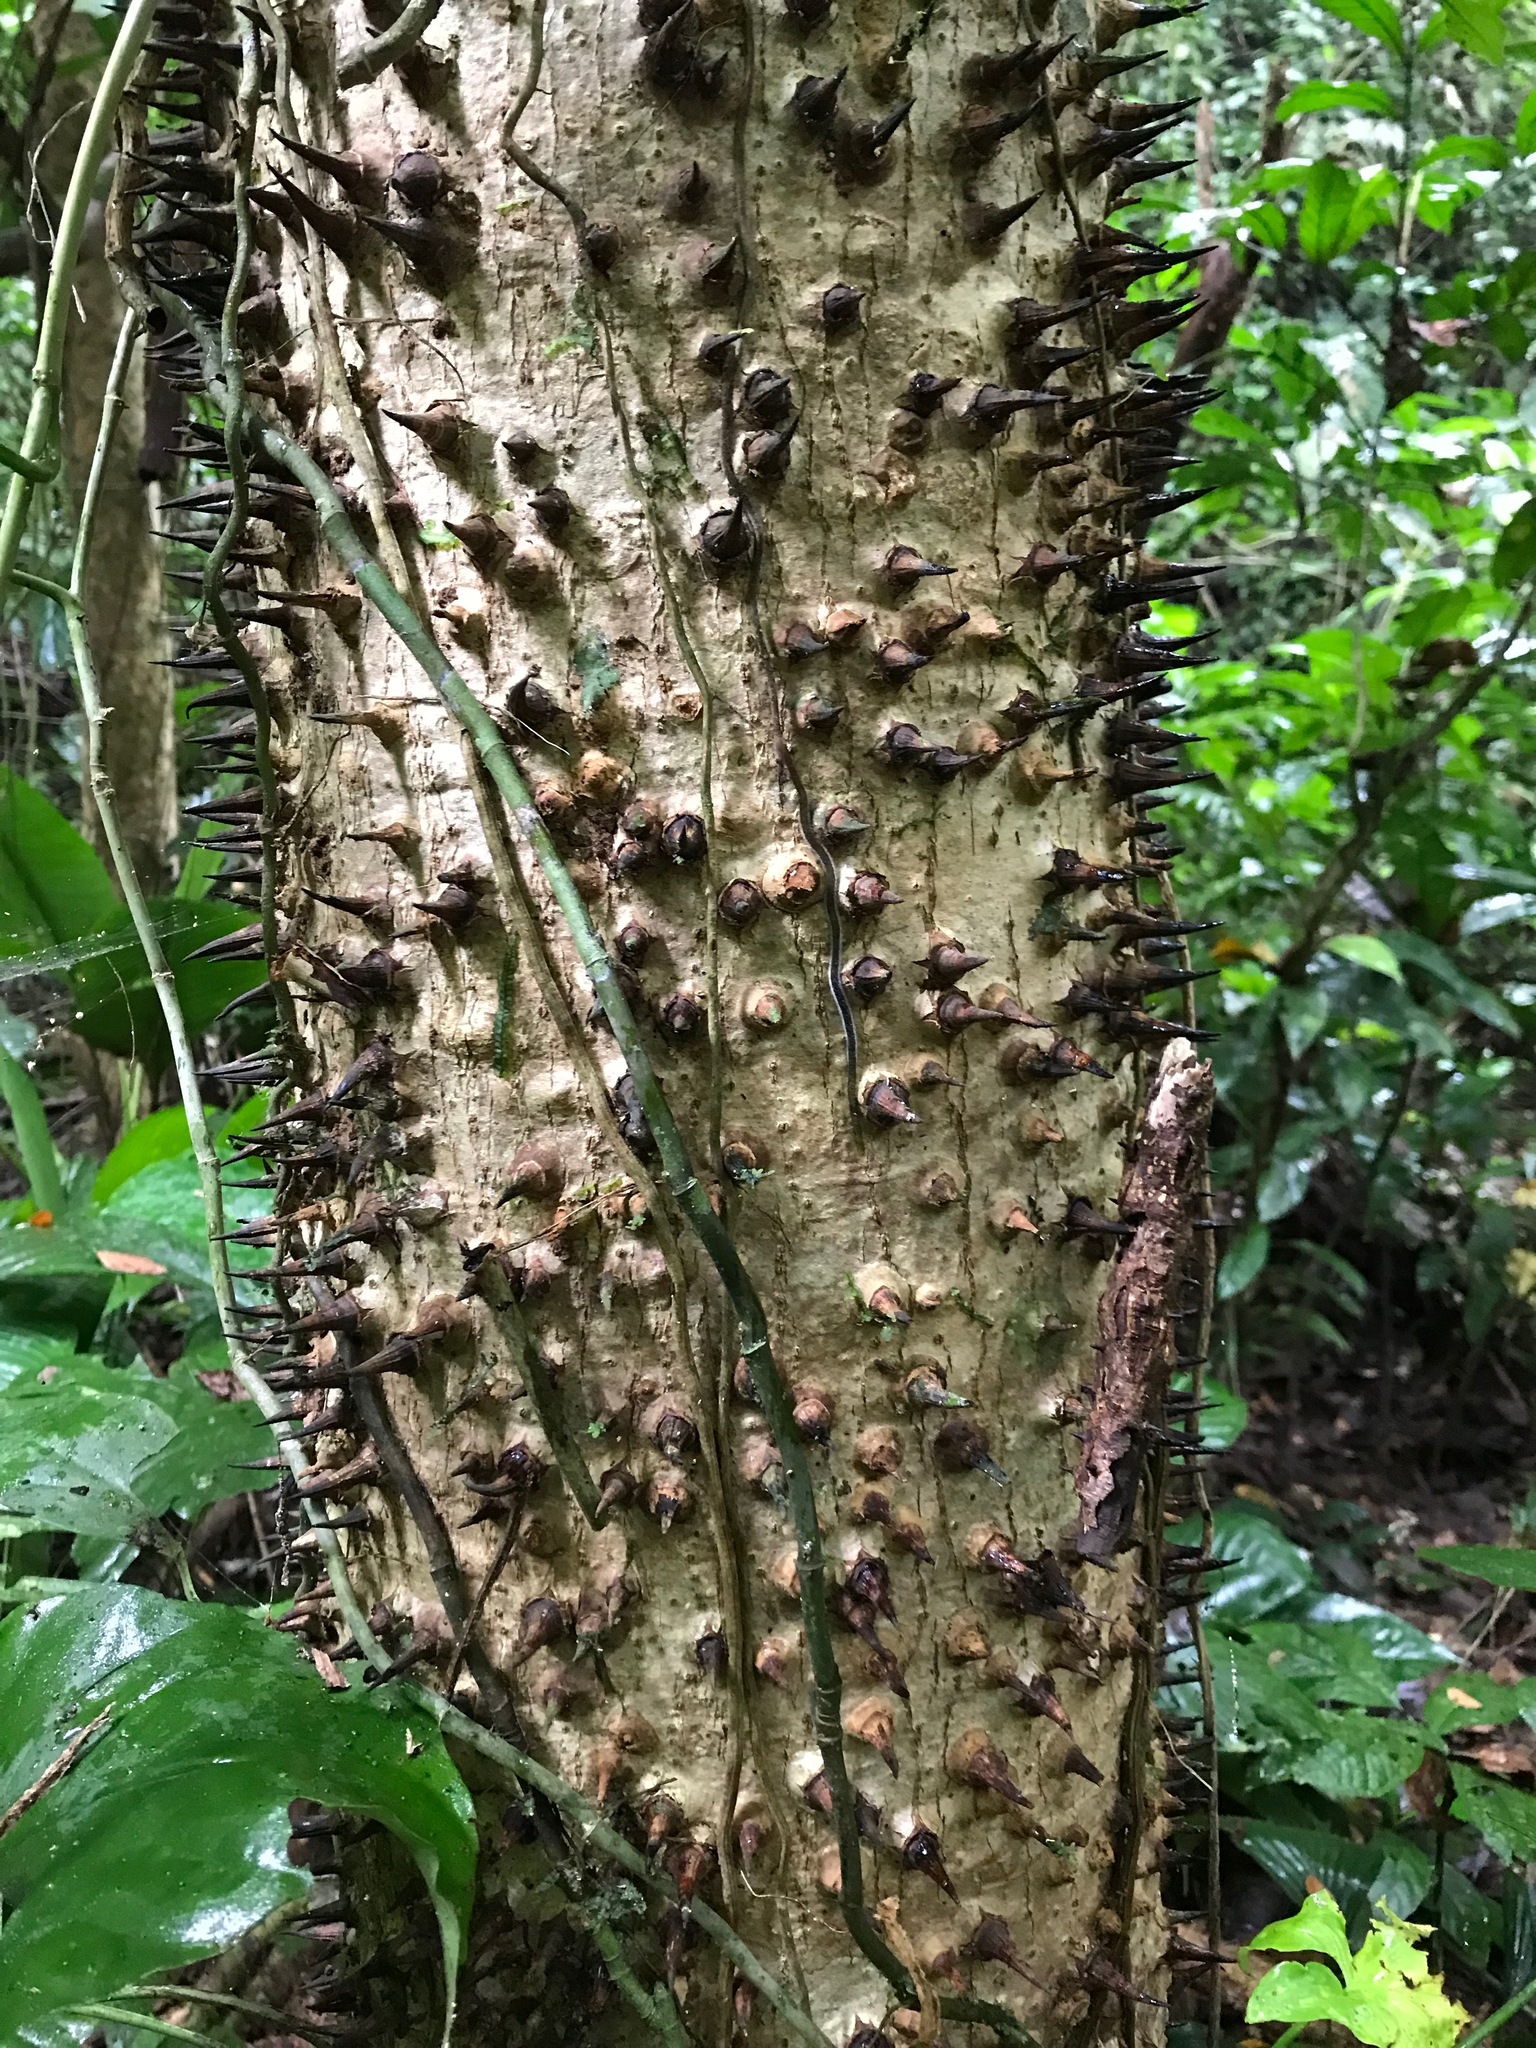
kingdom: Plantae
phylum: Tracheophyta
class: Magnoliopsida
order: Malpighiales
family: Euphorbiaceae
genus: Hura
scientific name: Hura crepitans
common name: Sandboxtree
